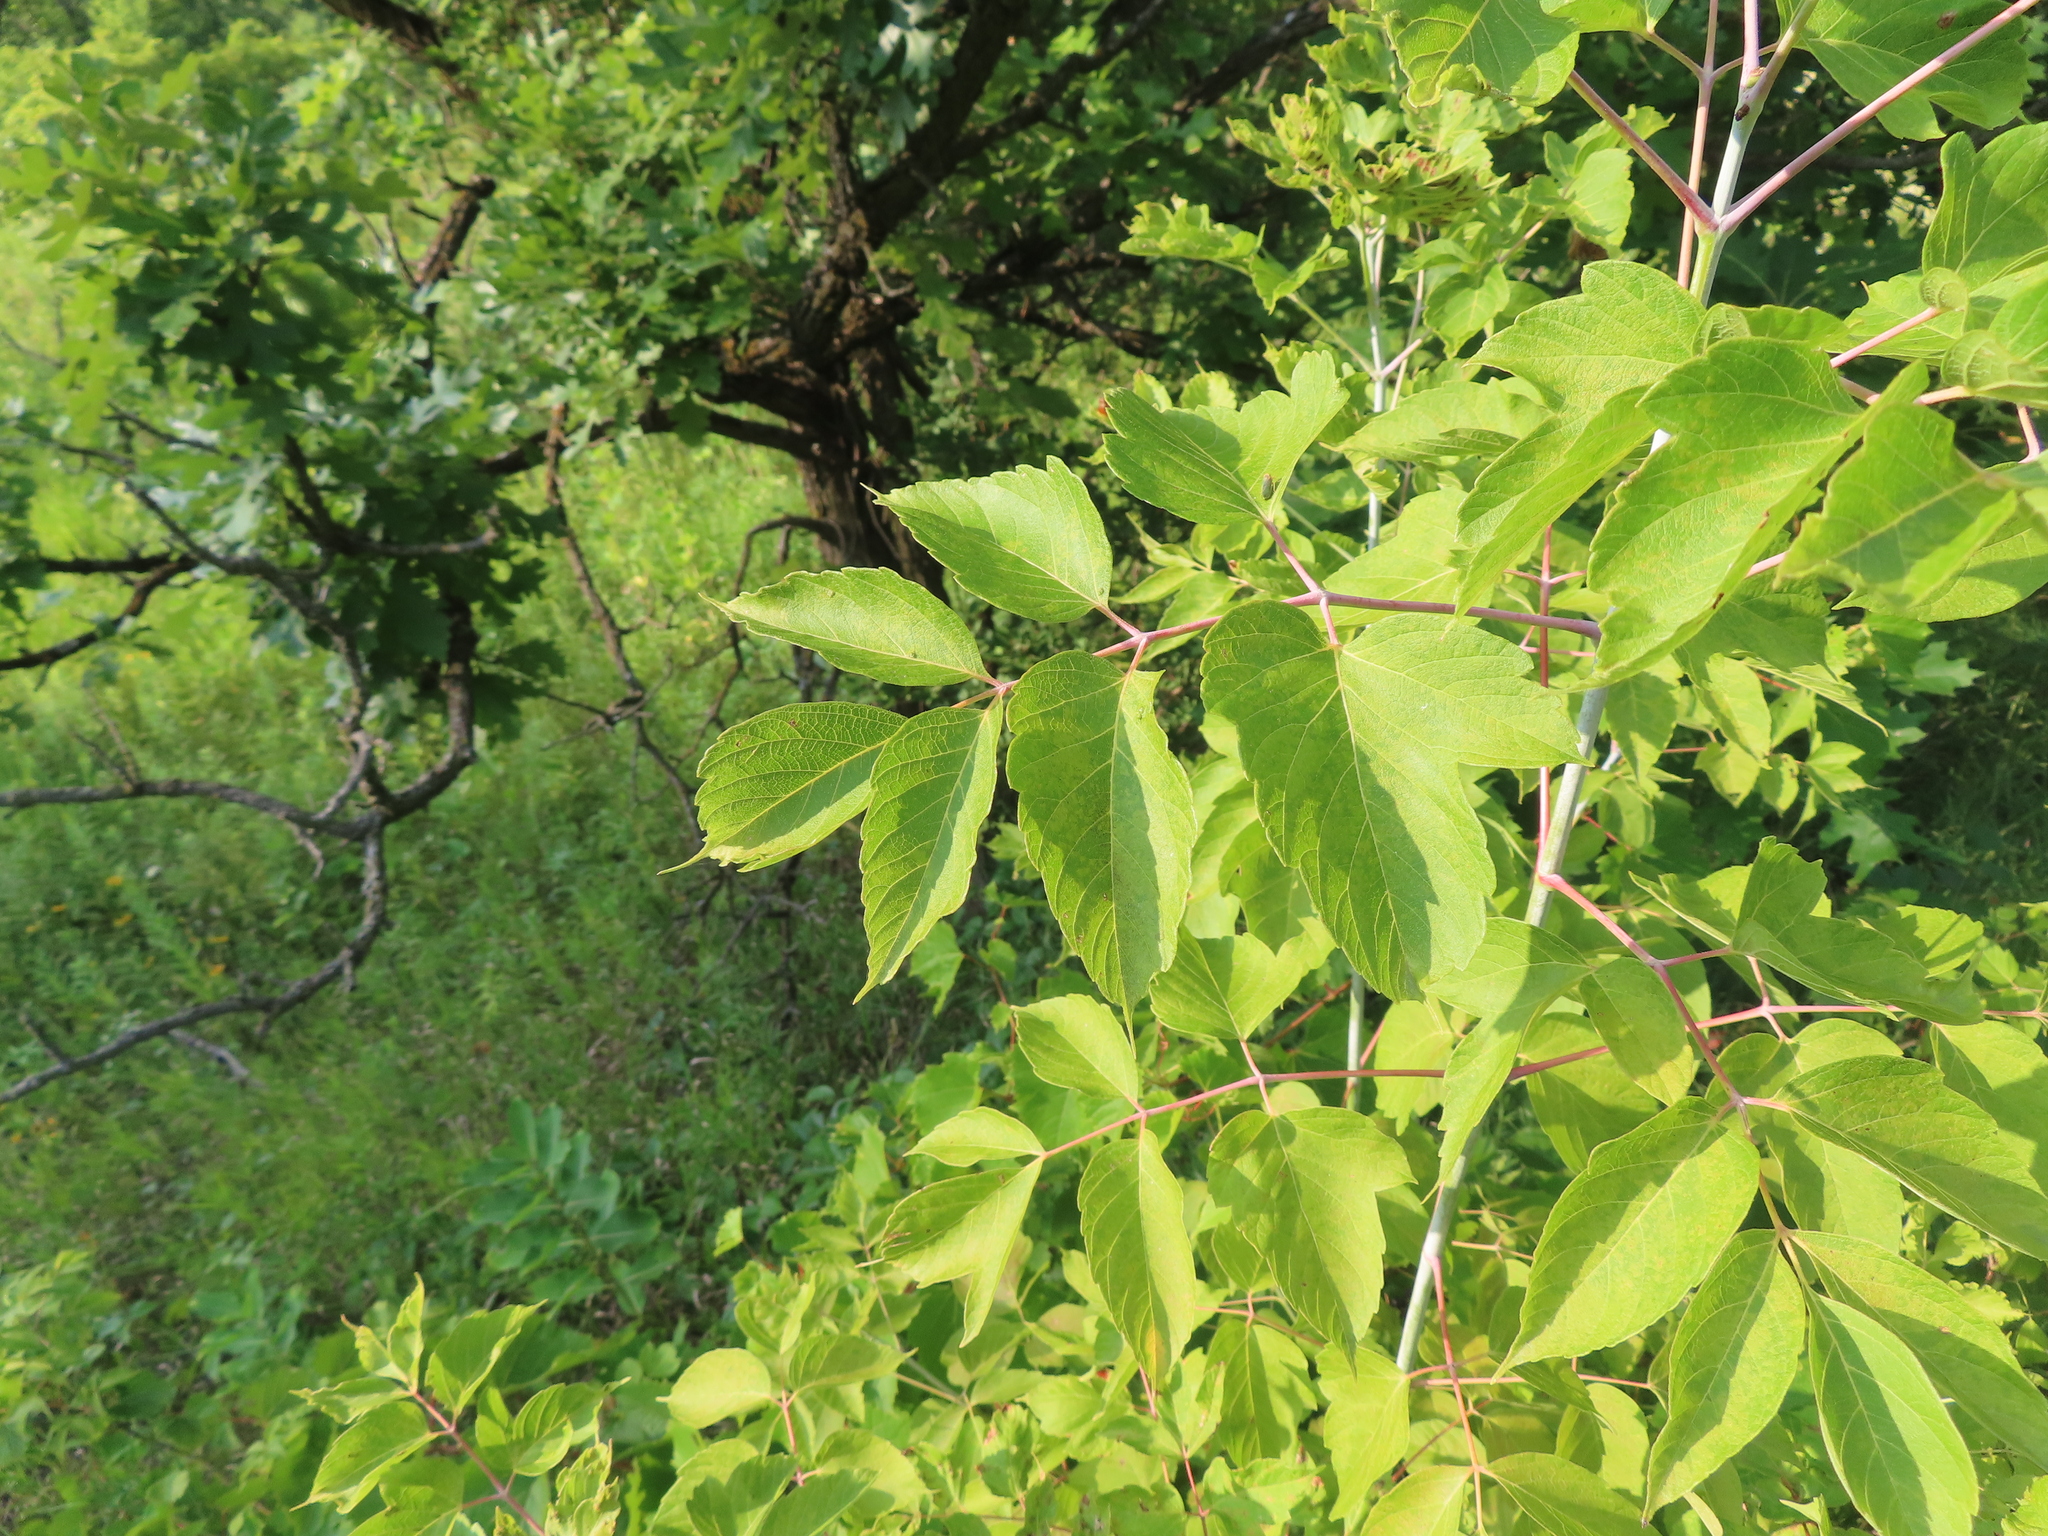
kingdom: Plantae
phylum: Tracheophyta
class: Magnoliopsida
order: Sapindales
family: Sapindaceae
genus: Acer
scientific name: Acer negundo
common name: Ashleaf maple
